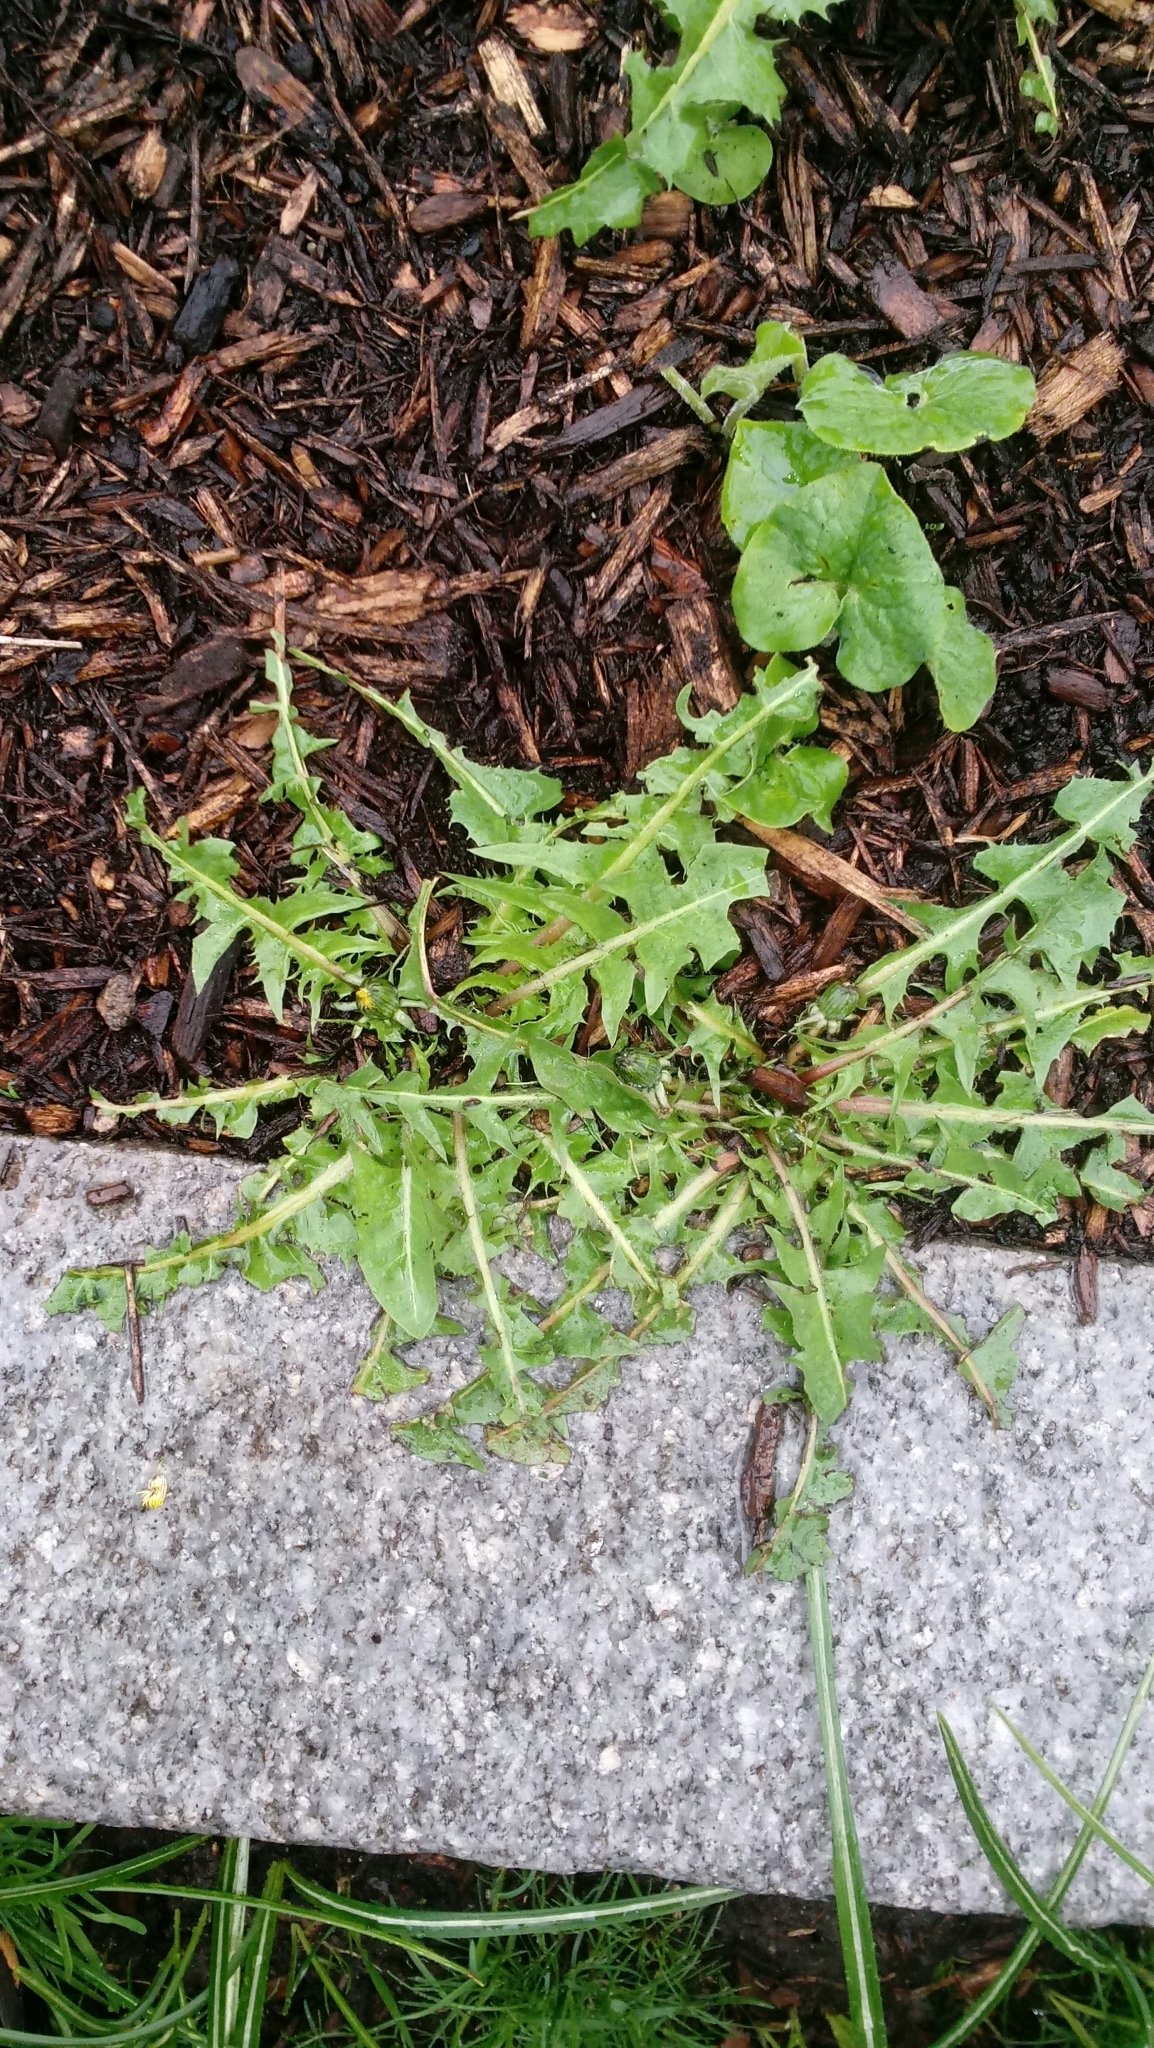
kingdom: Plantae
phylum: Tracheophyta
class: Magnoliopsida
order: Asterales
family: Asteraceae
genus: Taraxacum
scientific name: Taraxacum officinale
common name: Common dandelion
